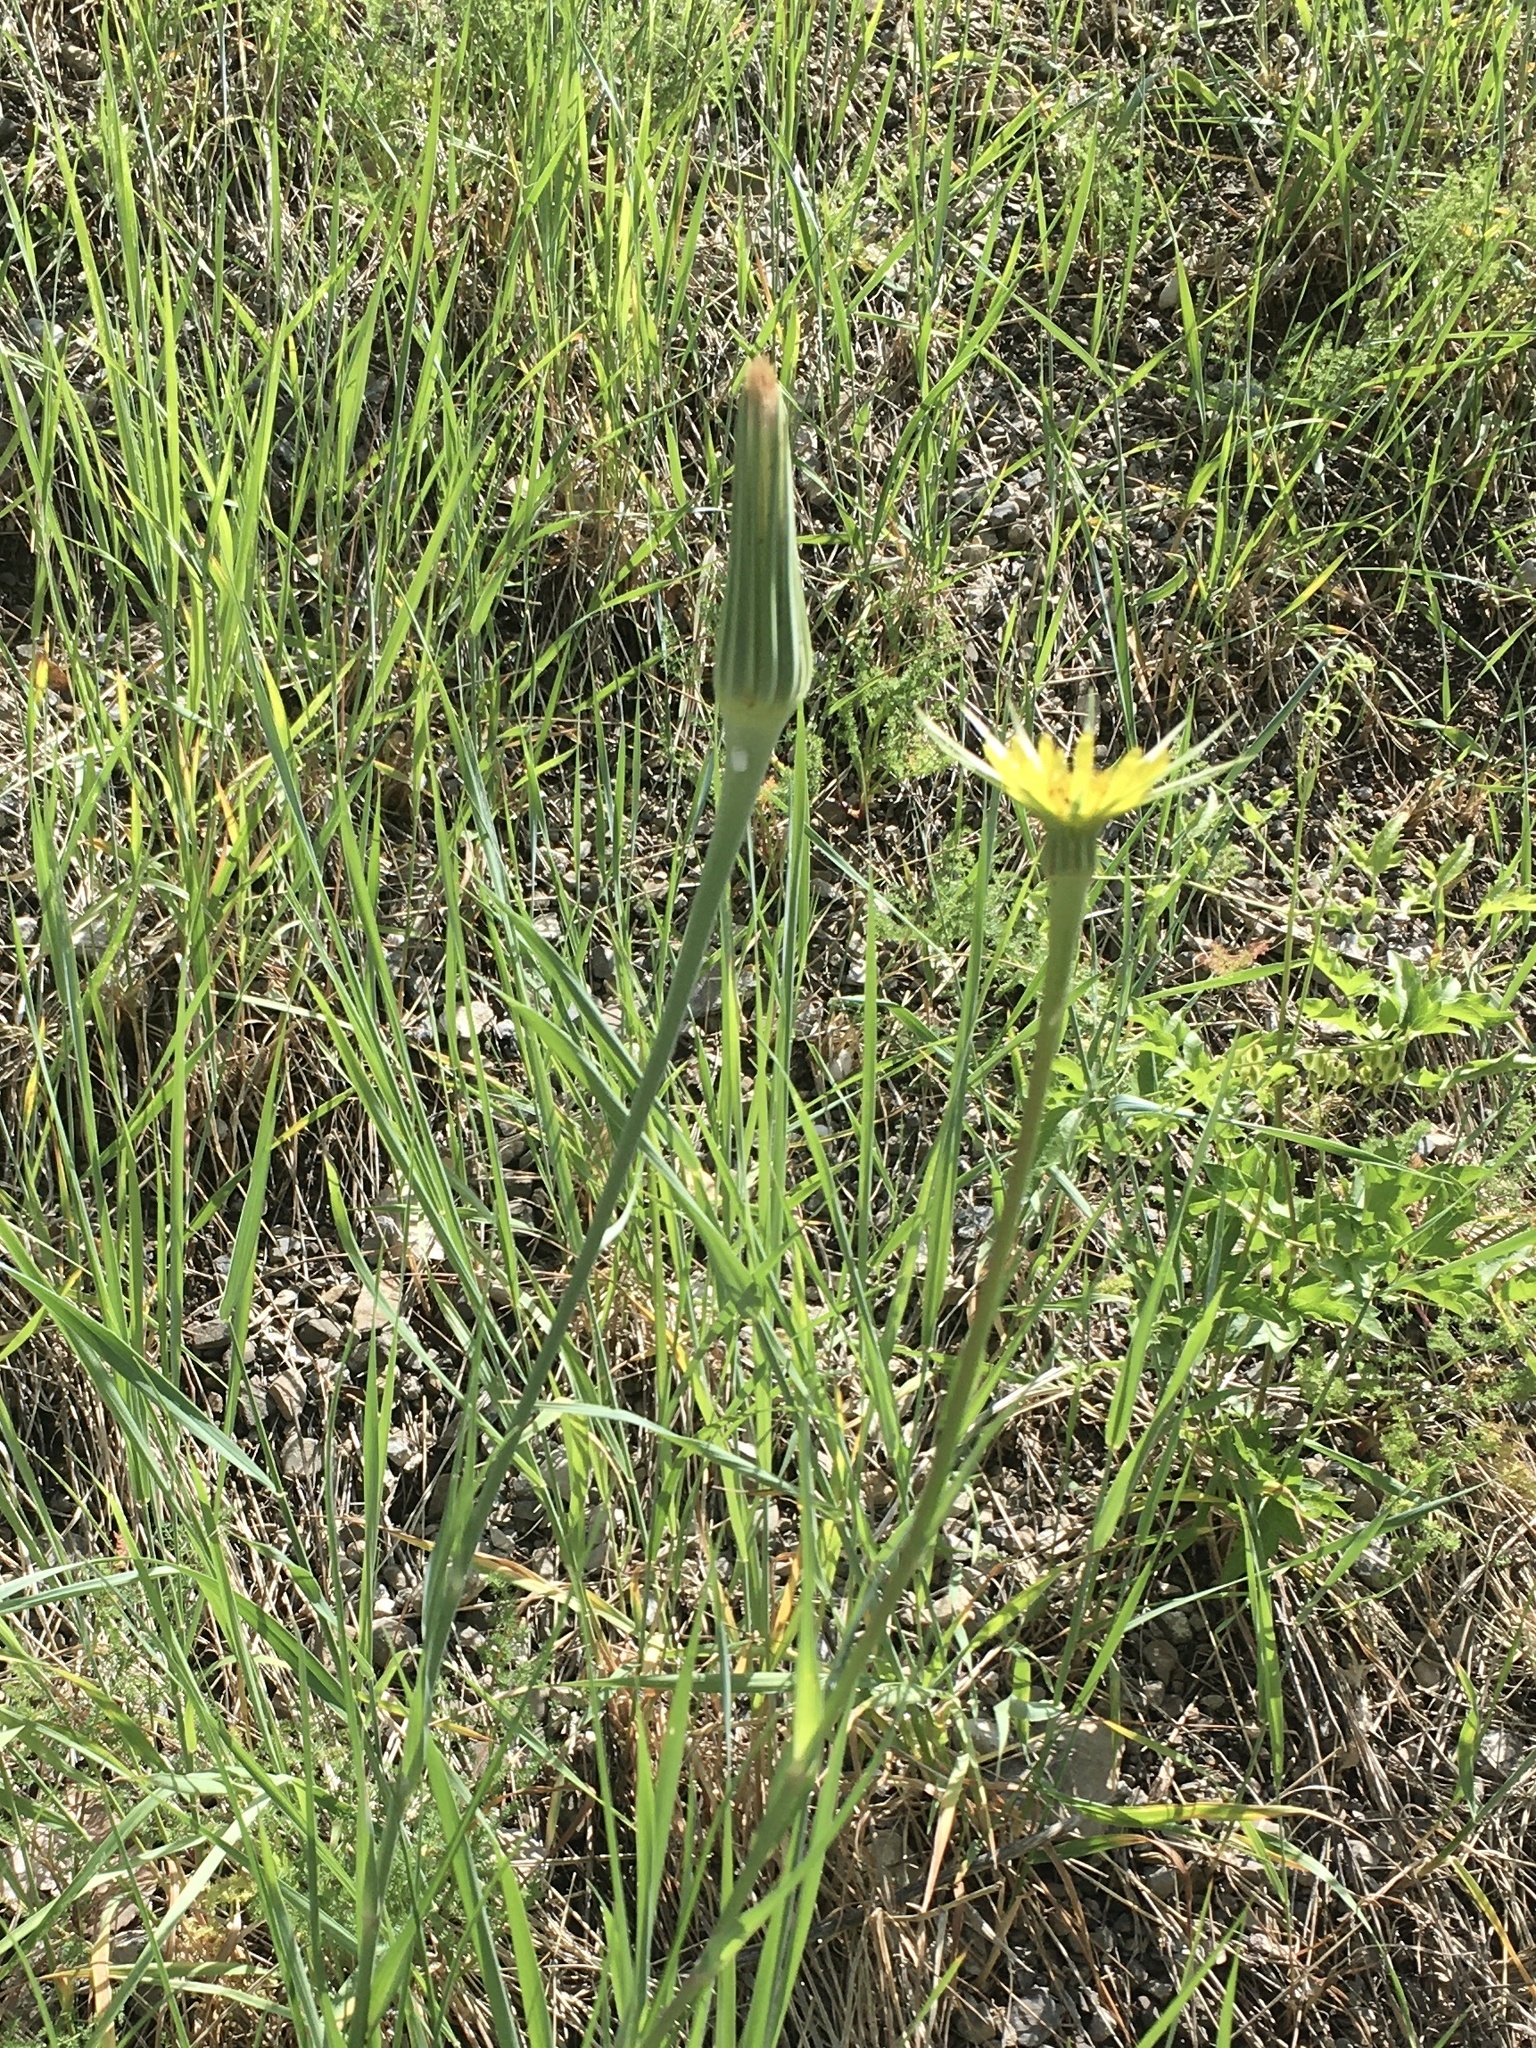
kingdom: Plantae
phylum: Tracheophyta
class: Magnoliopsida
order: Asterales
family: Asteraceae
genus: Tragopogon
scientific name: Tragopogon dubius
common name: Yellow salsify
